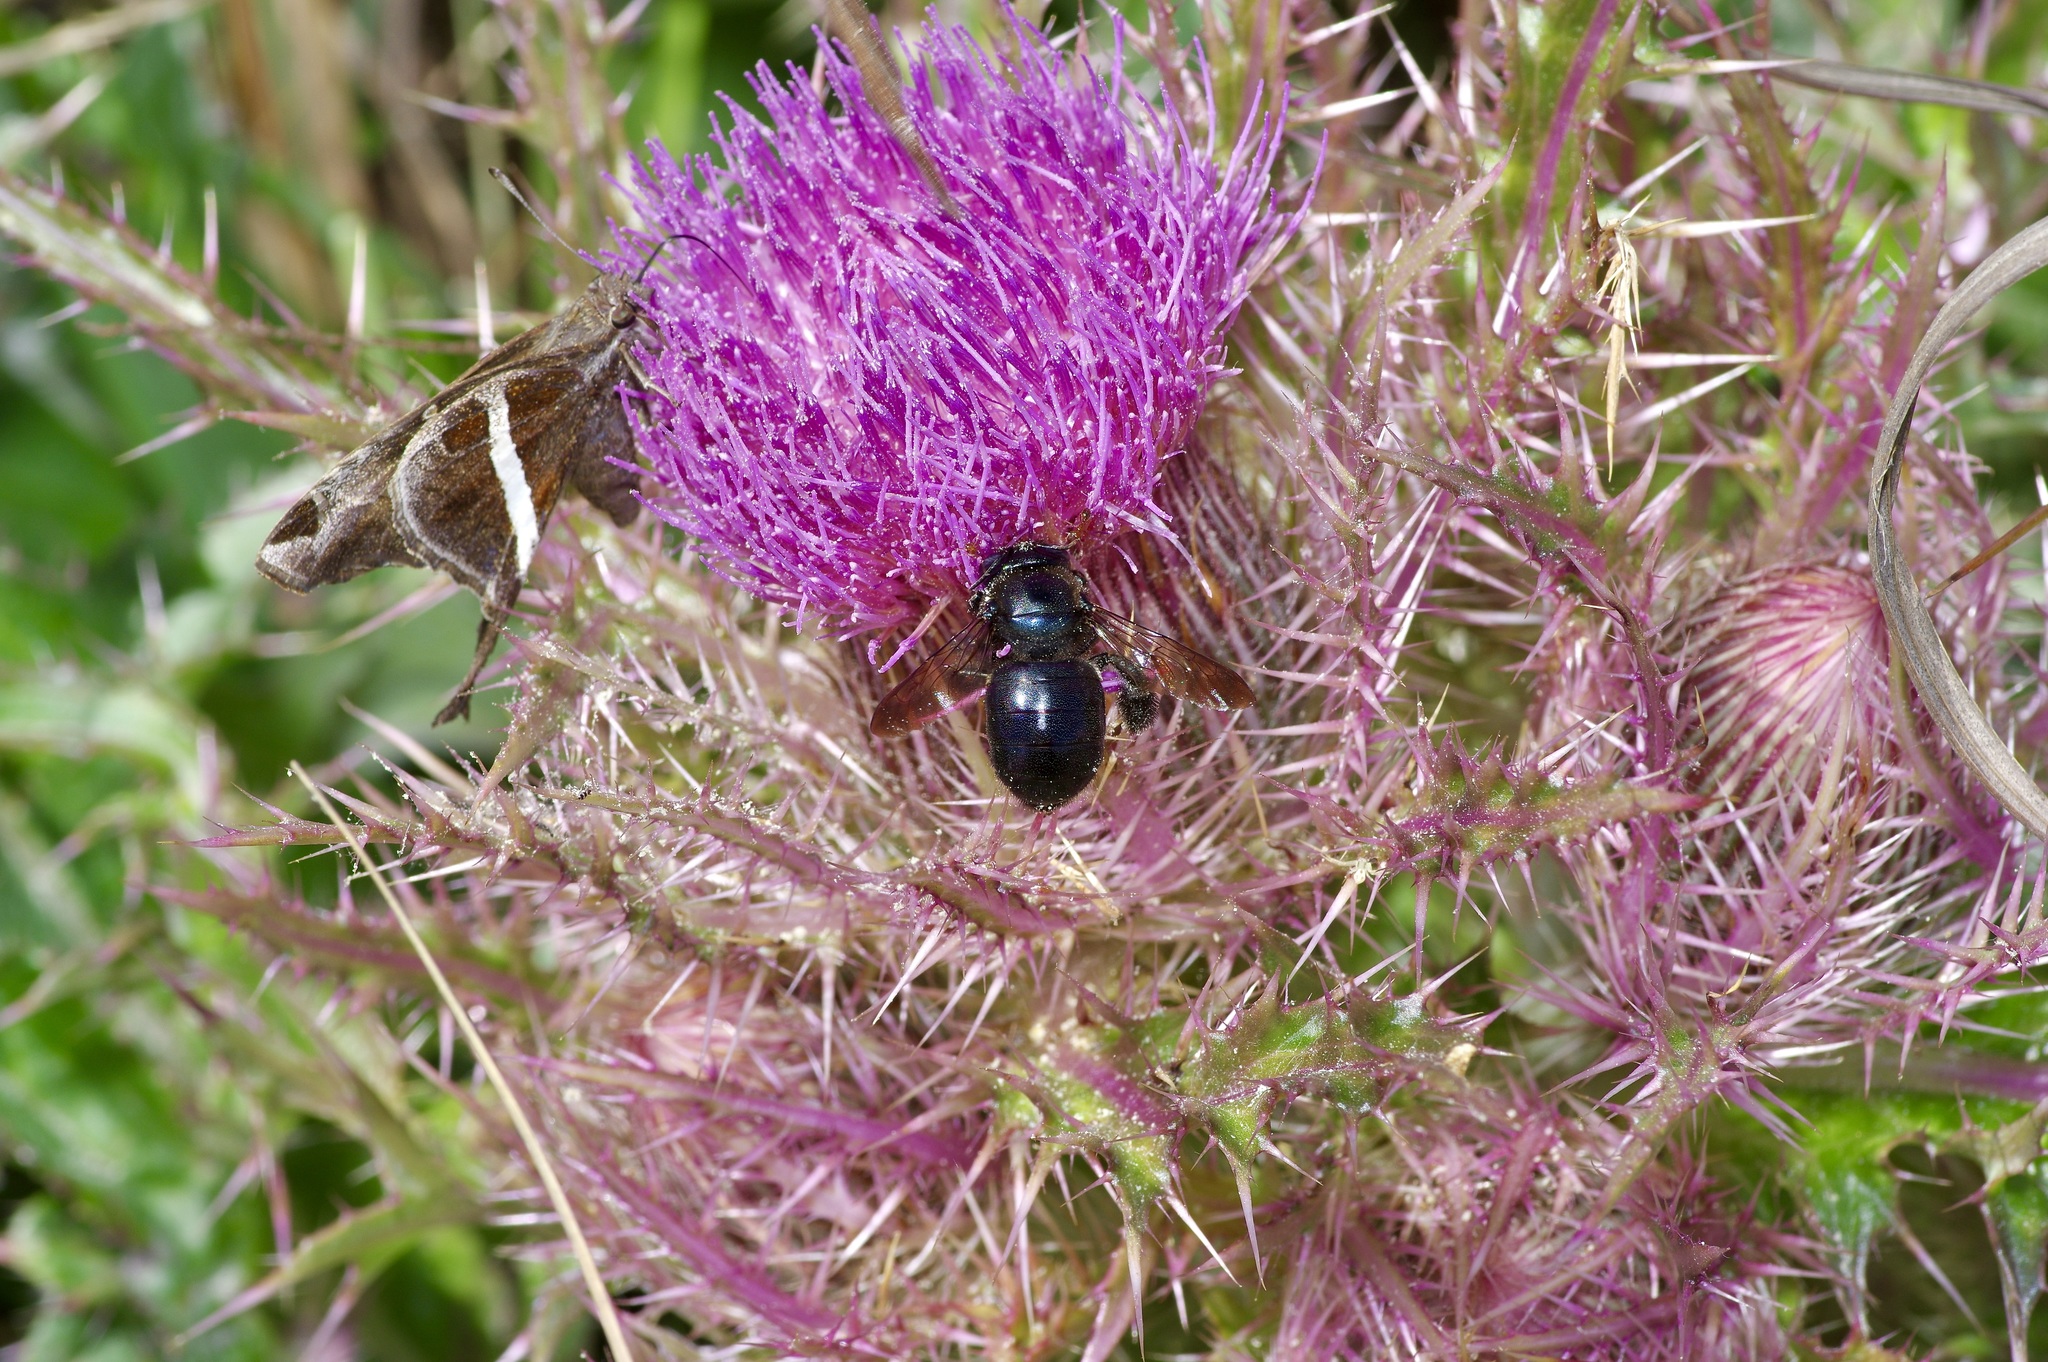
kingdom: Animalia
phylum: Arthropoda
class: Insecta
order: Hymenoptera
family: Apidae
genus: Xylocopa
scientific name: Xylocopa micans
